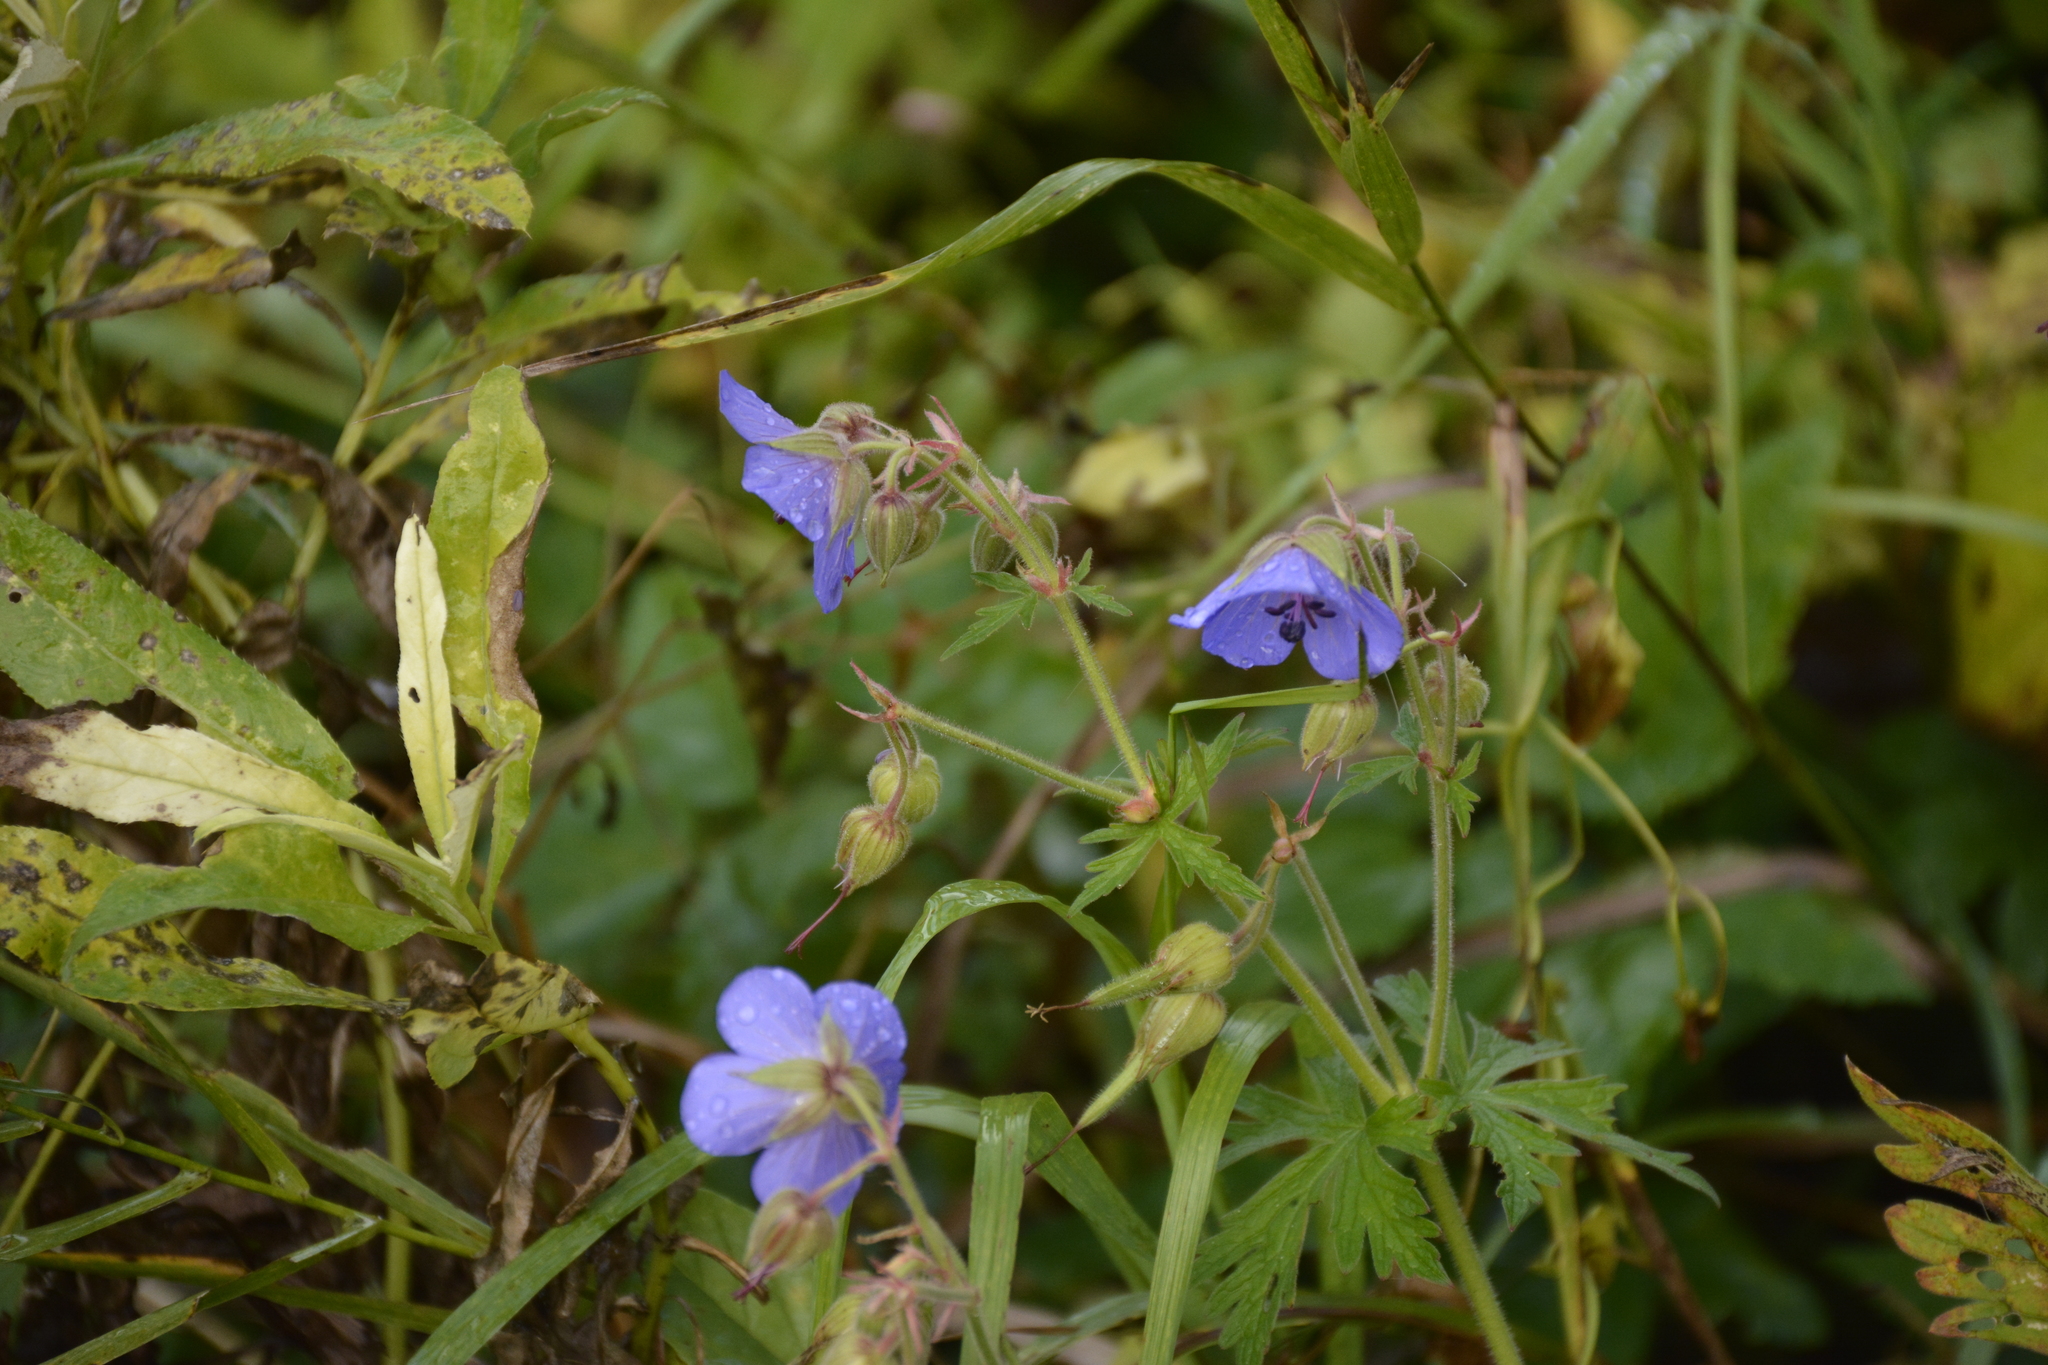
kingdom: Plantae
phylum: Tracheophyta
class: Magnoliopsida
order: Geraniales
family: Geraniaceae
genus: Geranium
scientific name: Geranium pratense
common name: Meadow crane's-bill
